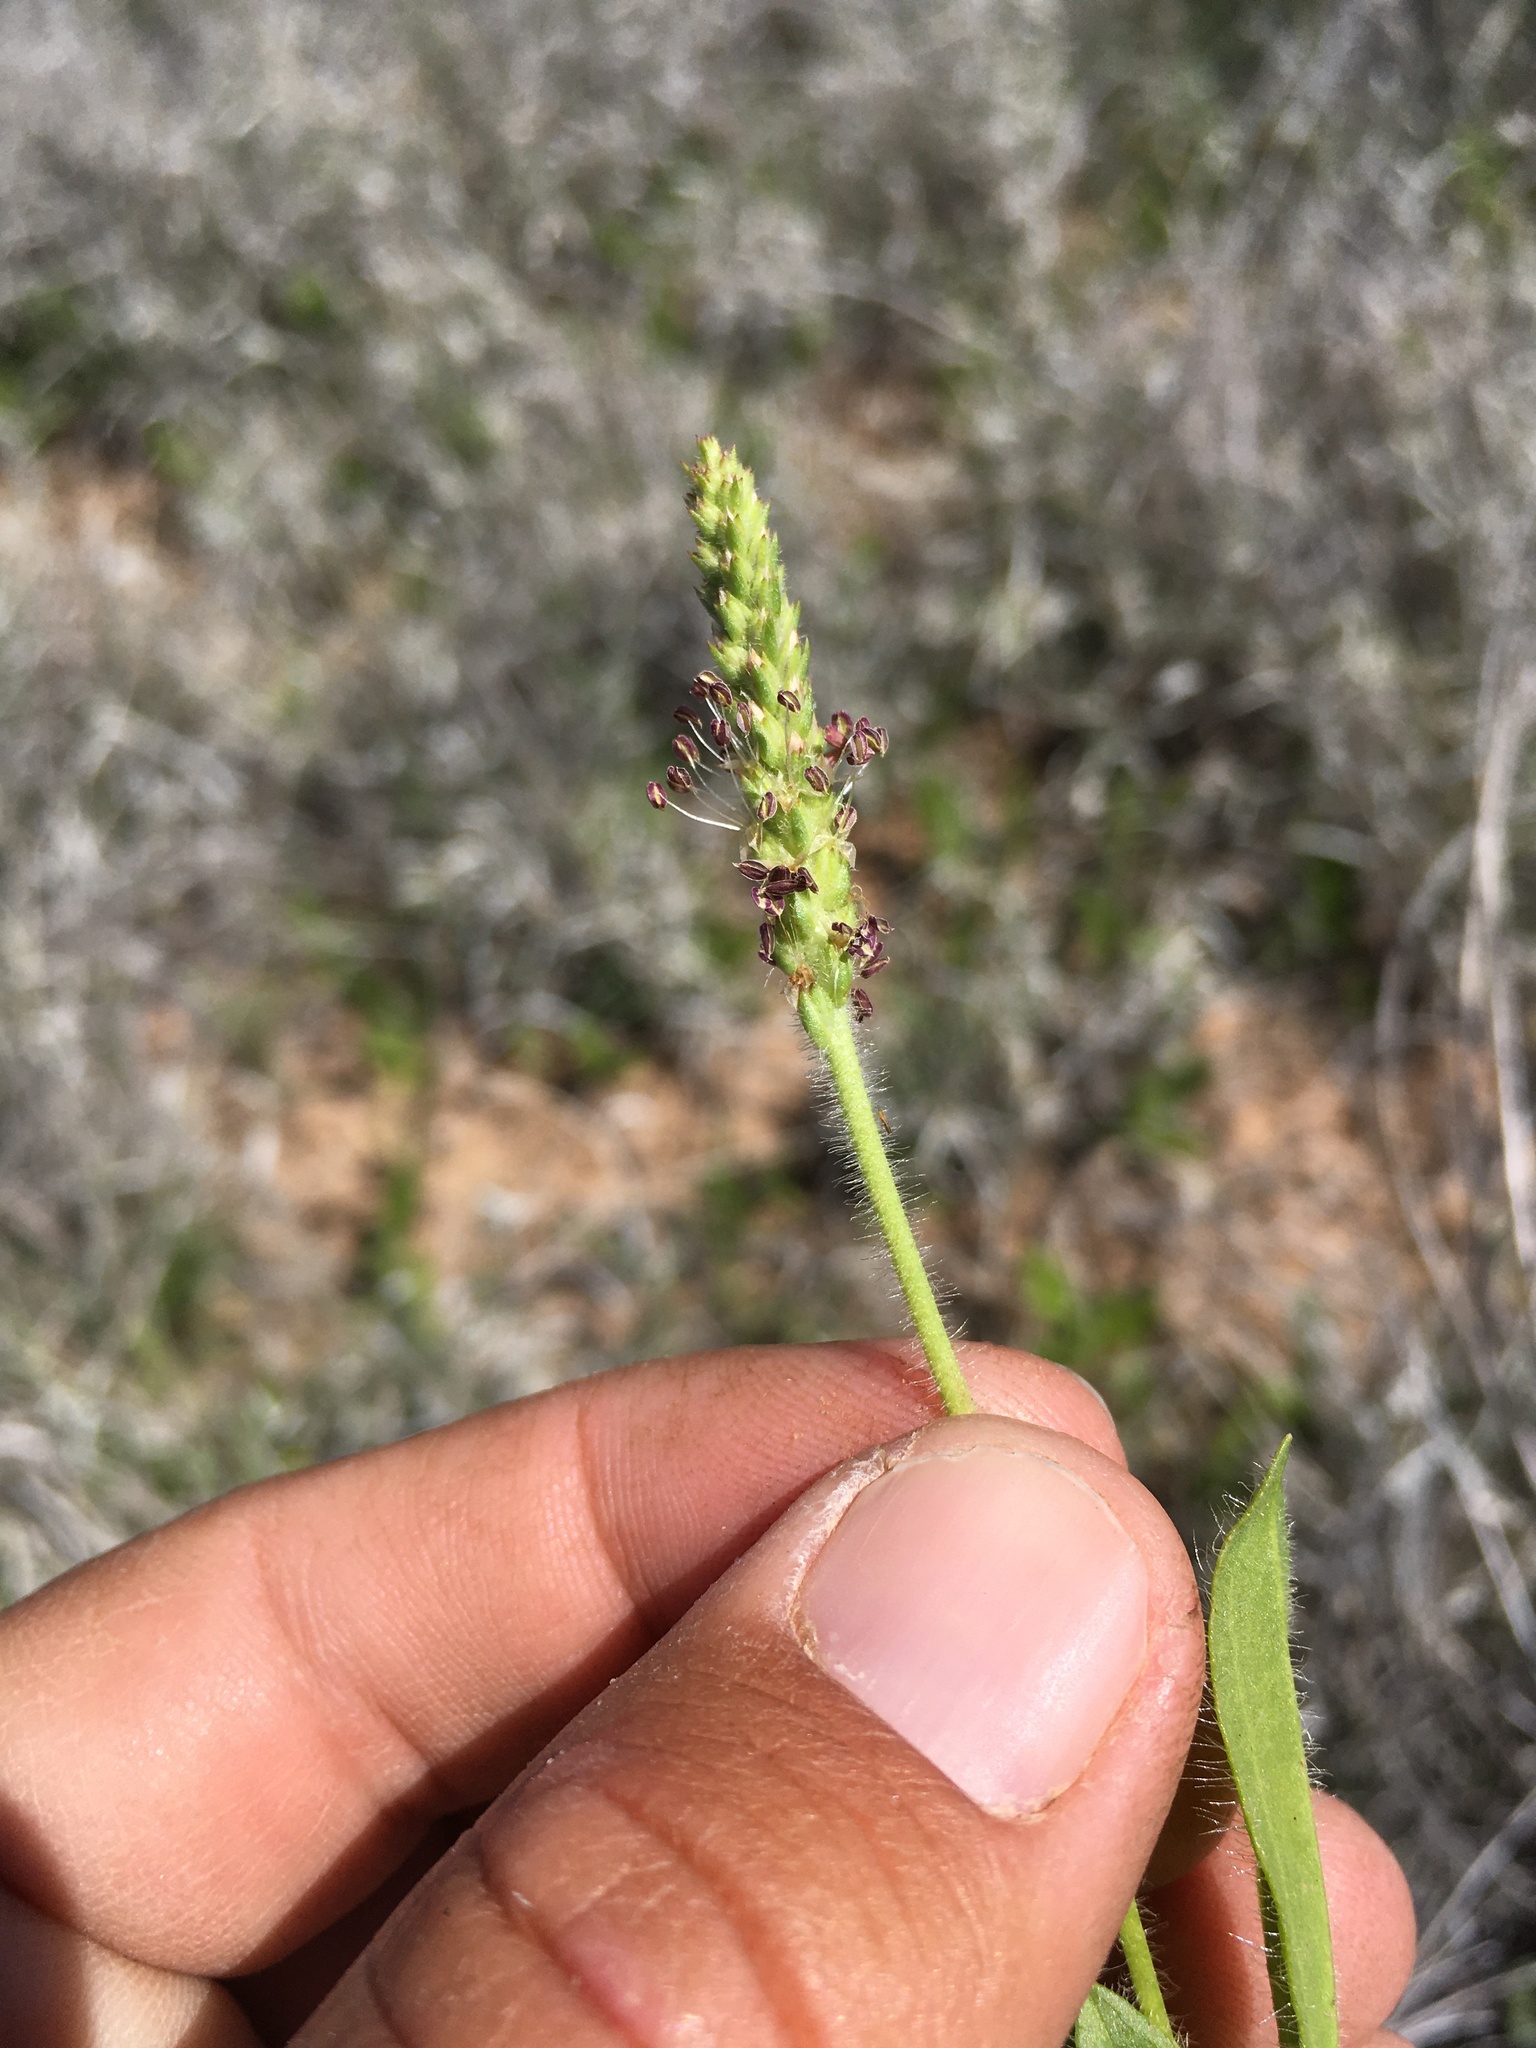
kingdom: Plantae
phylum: Tracheophyta
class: Magnoliopsida
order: Lamiales
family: Plantaginaceae
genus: Plantago
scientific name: Plantago rhodosperma
